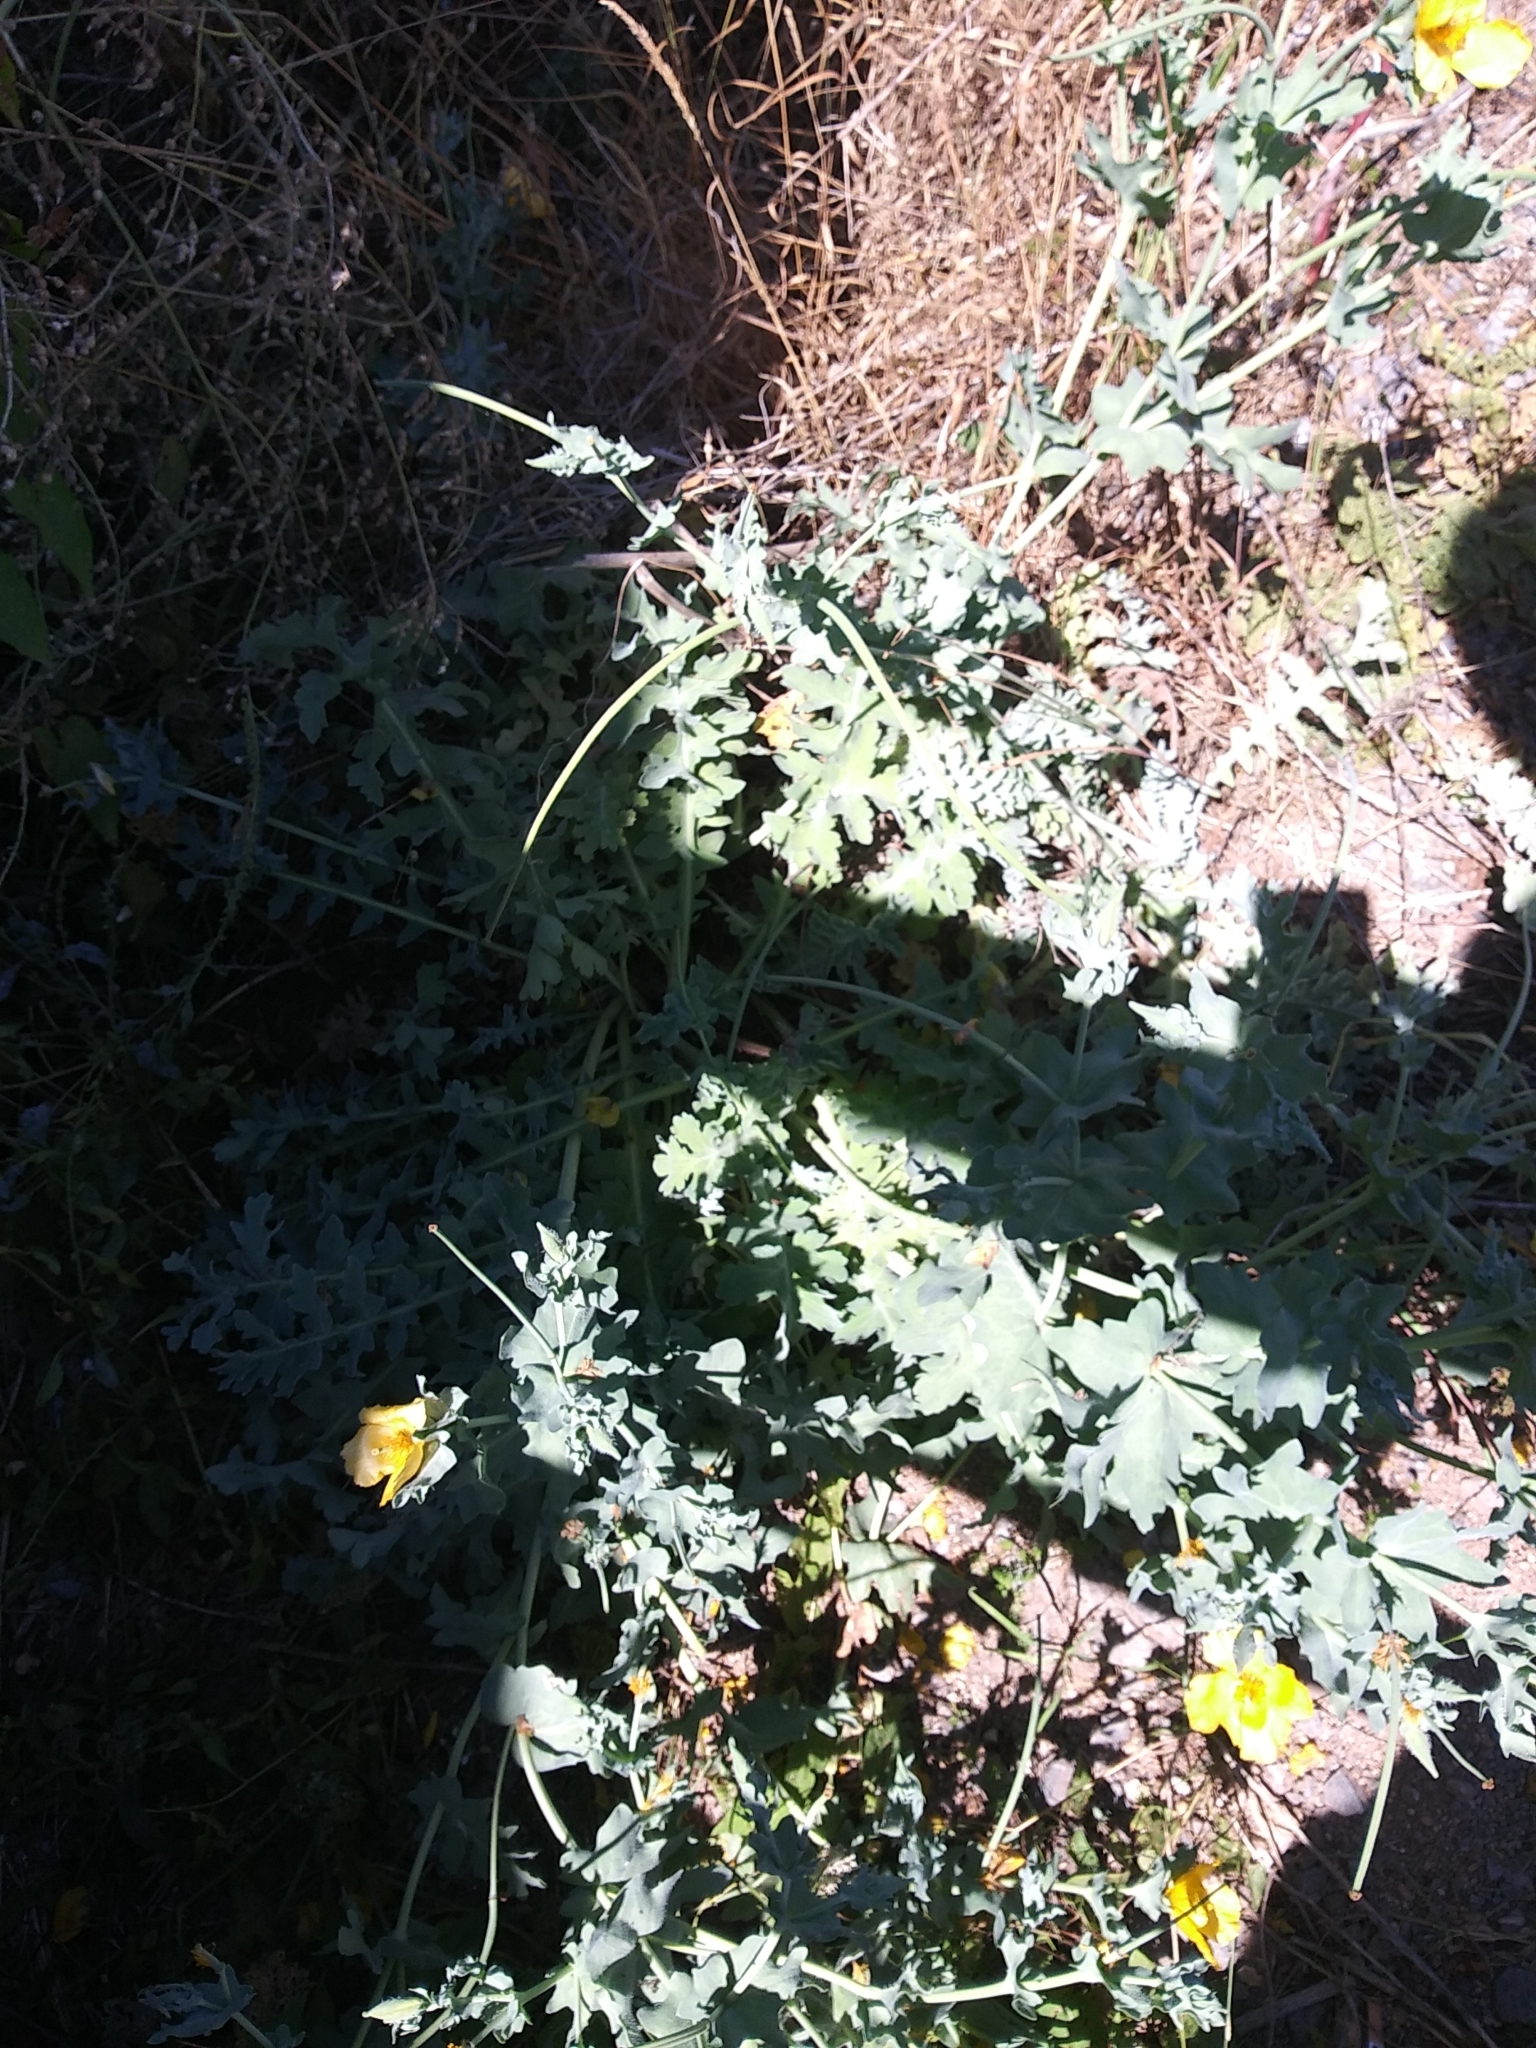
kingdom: Plantae
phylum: Tracheophyta
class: Magnoliopsida
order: Ranunculales
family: Papaveraceae
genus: Glaucium
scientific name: Glaucium flavum
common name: Yellow horned-poppy
